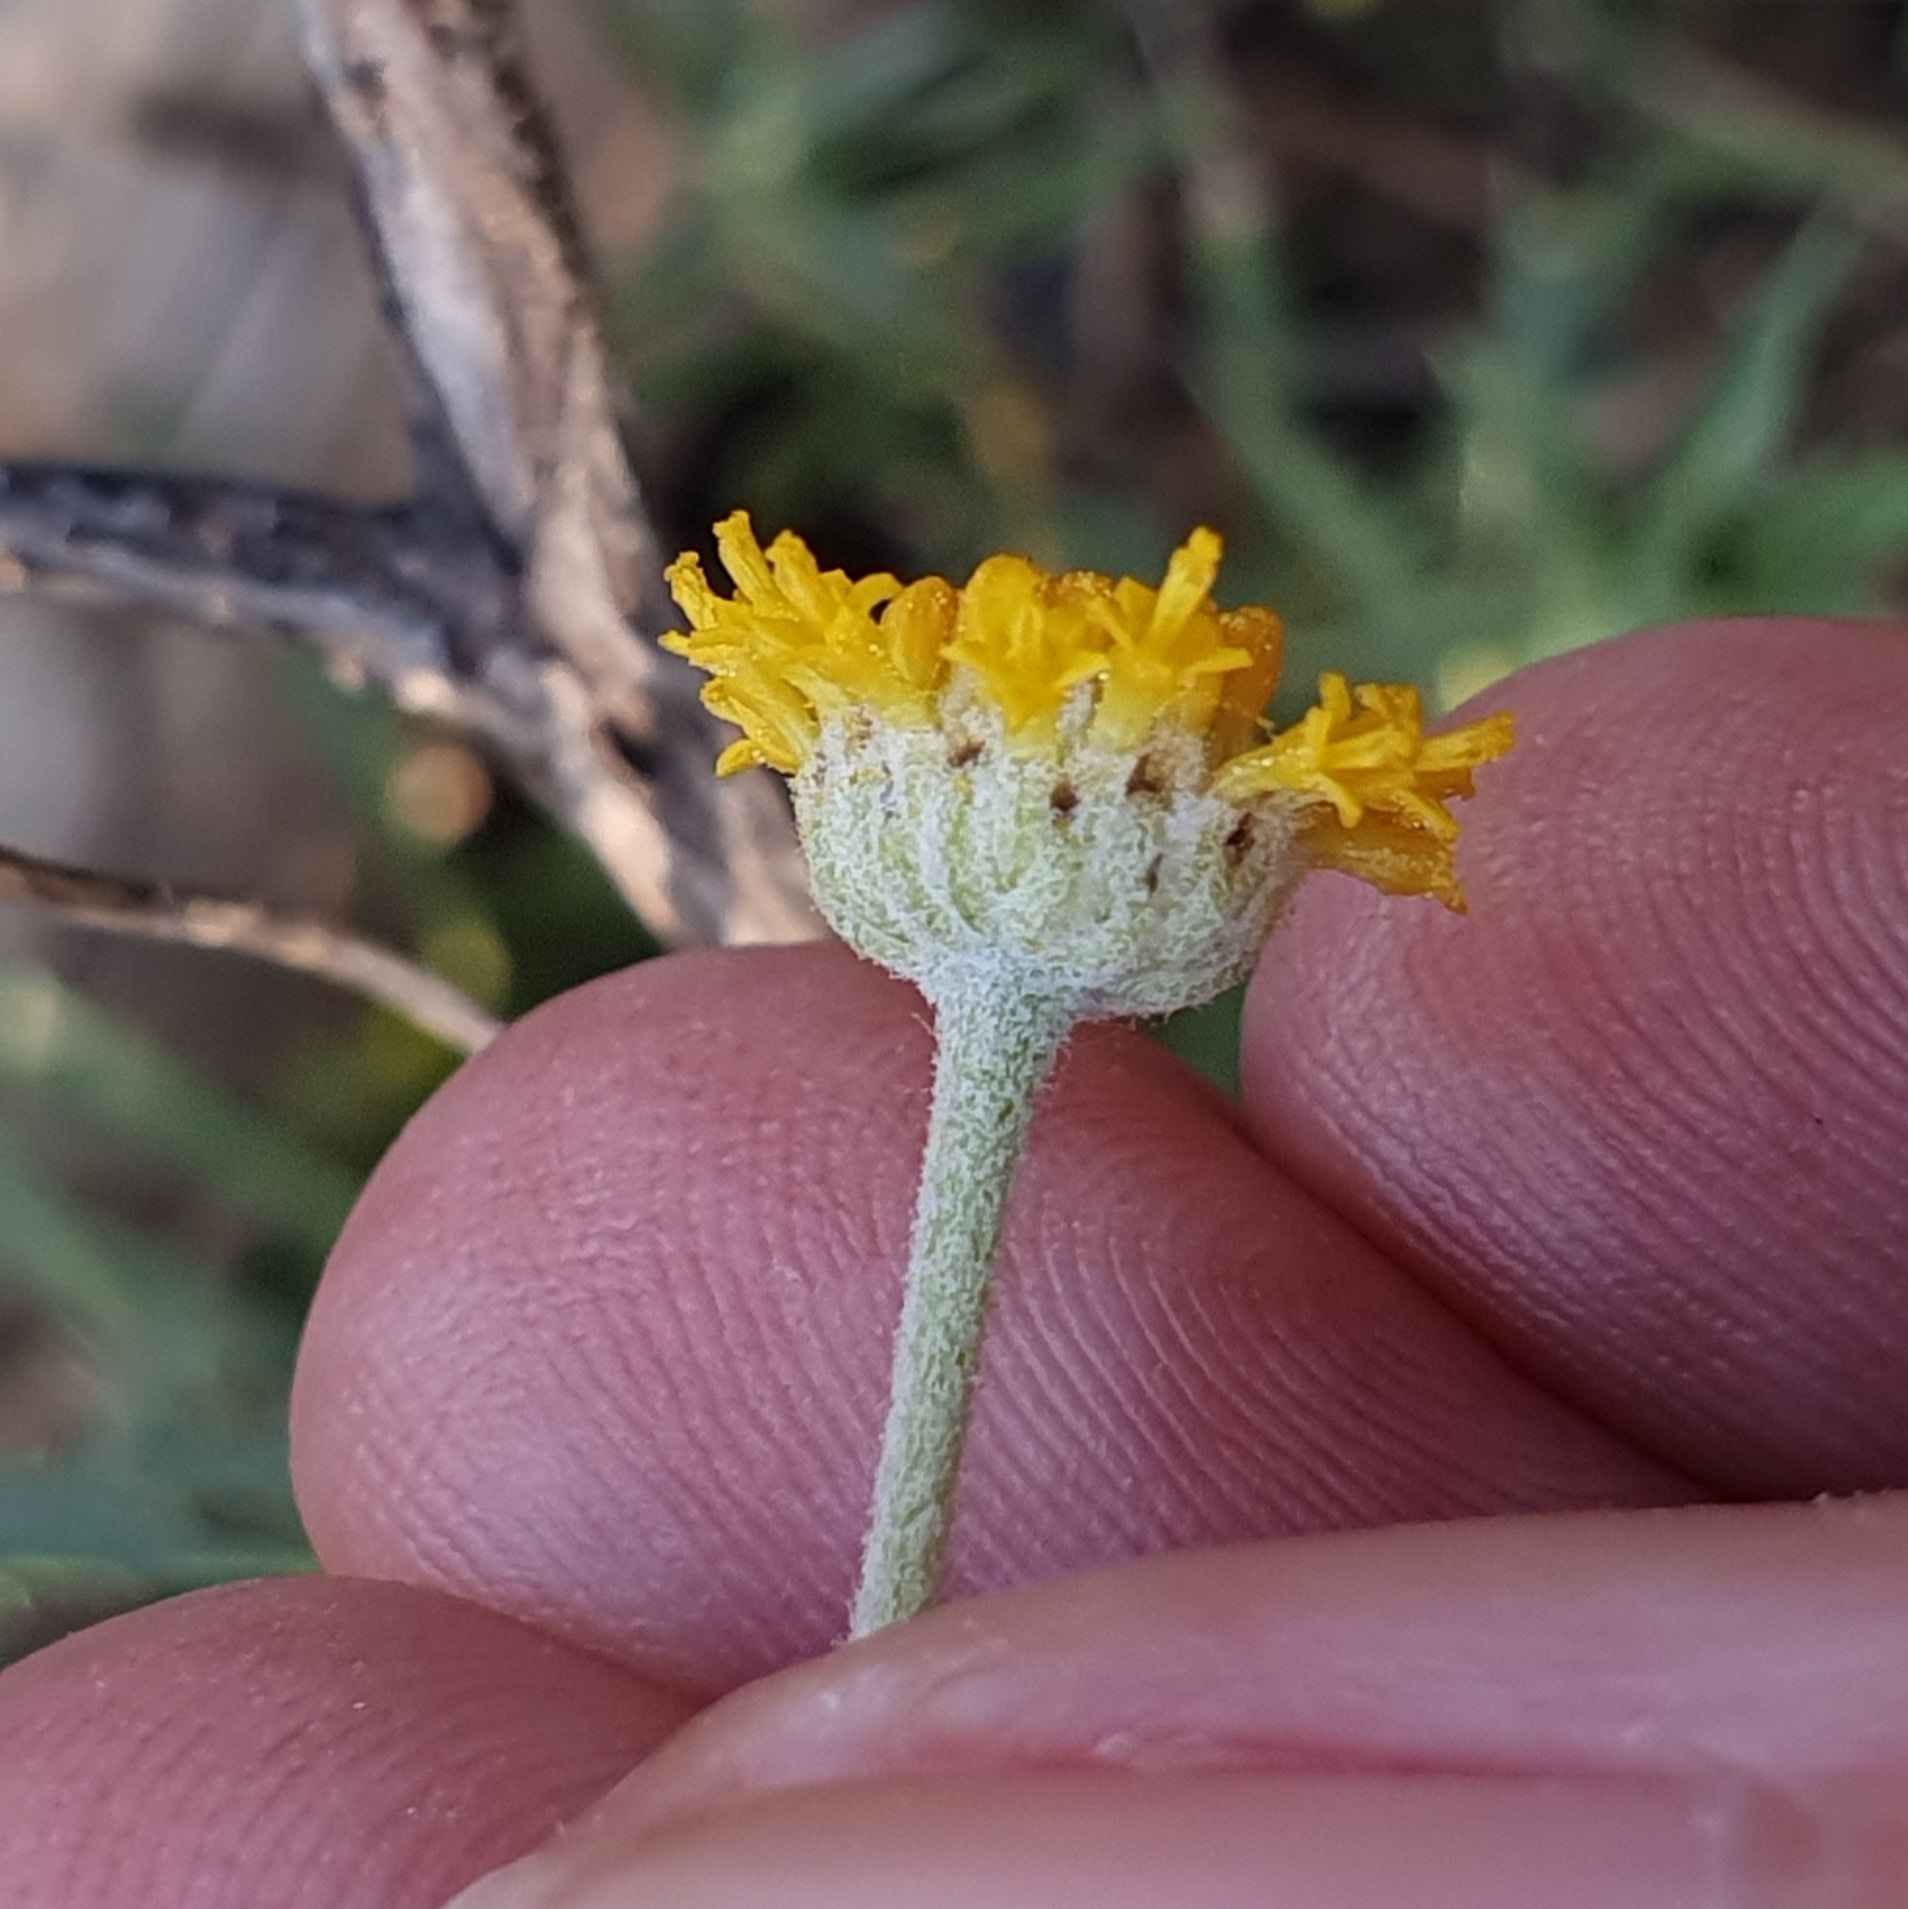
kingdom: Plantae
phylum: Tracheophyta
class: Magnoliopsida
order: Asterales
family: Asteraceae
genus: Santolina
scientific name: Santolina africana
